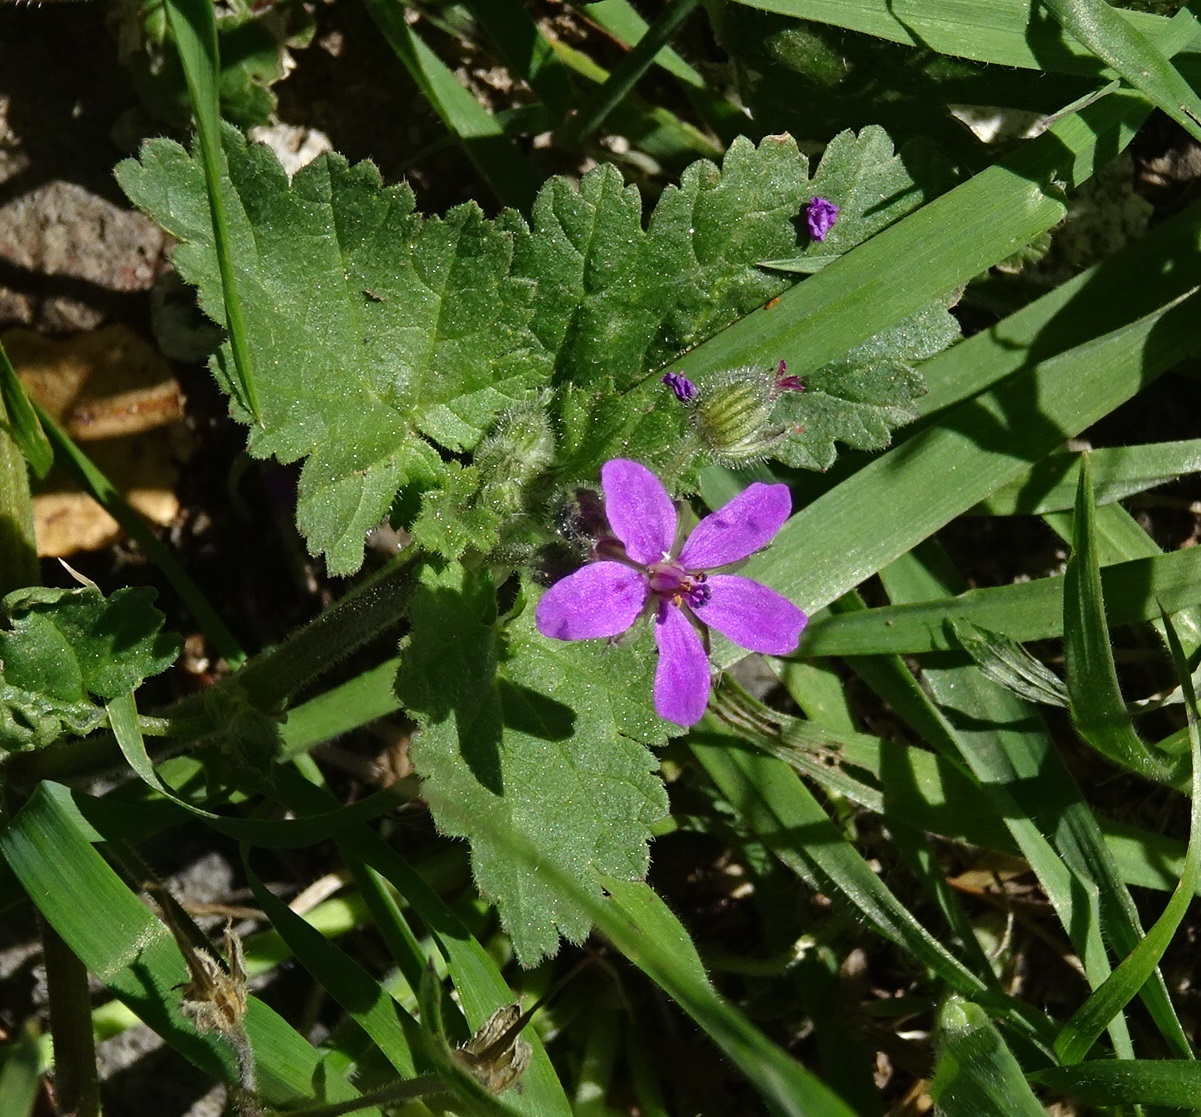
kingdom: Plantae
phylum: Tracheophyta
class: Magnoliopsida
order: Geraniales
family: Geraniaceae
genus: Erodium
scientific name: Erodium malacoides
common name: Soft stork's-bill
